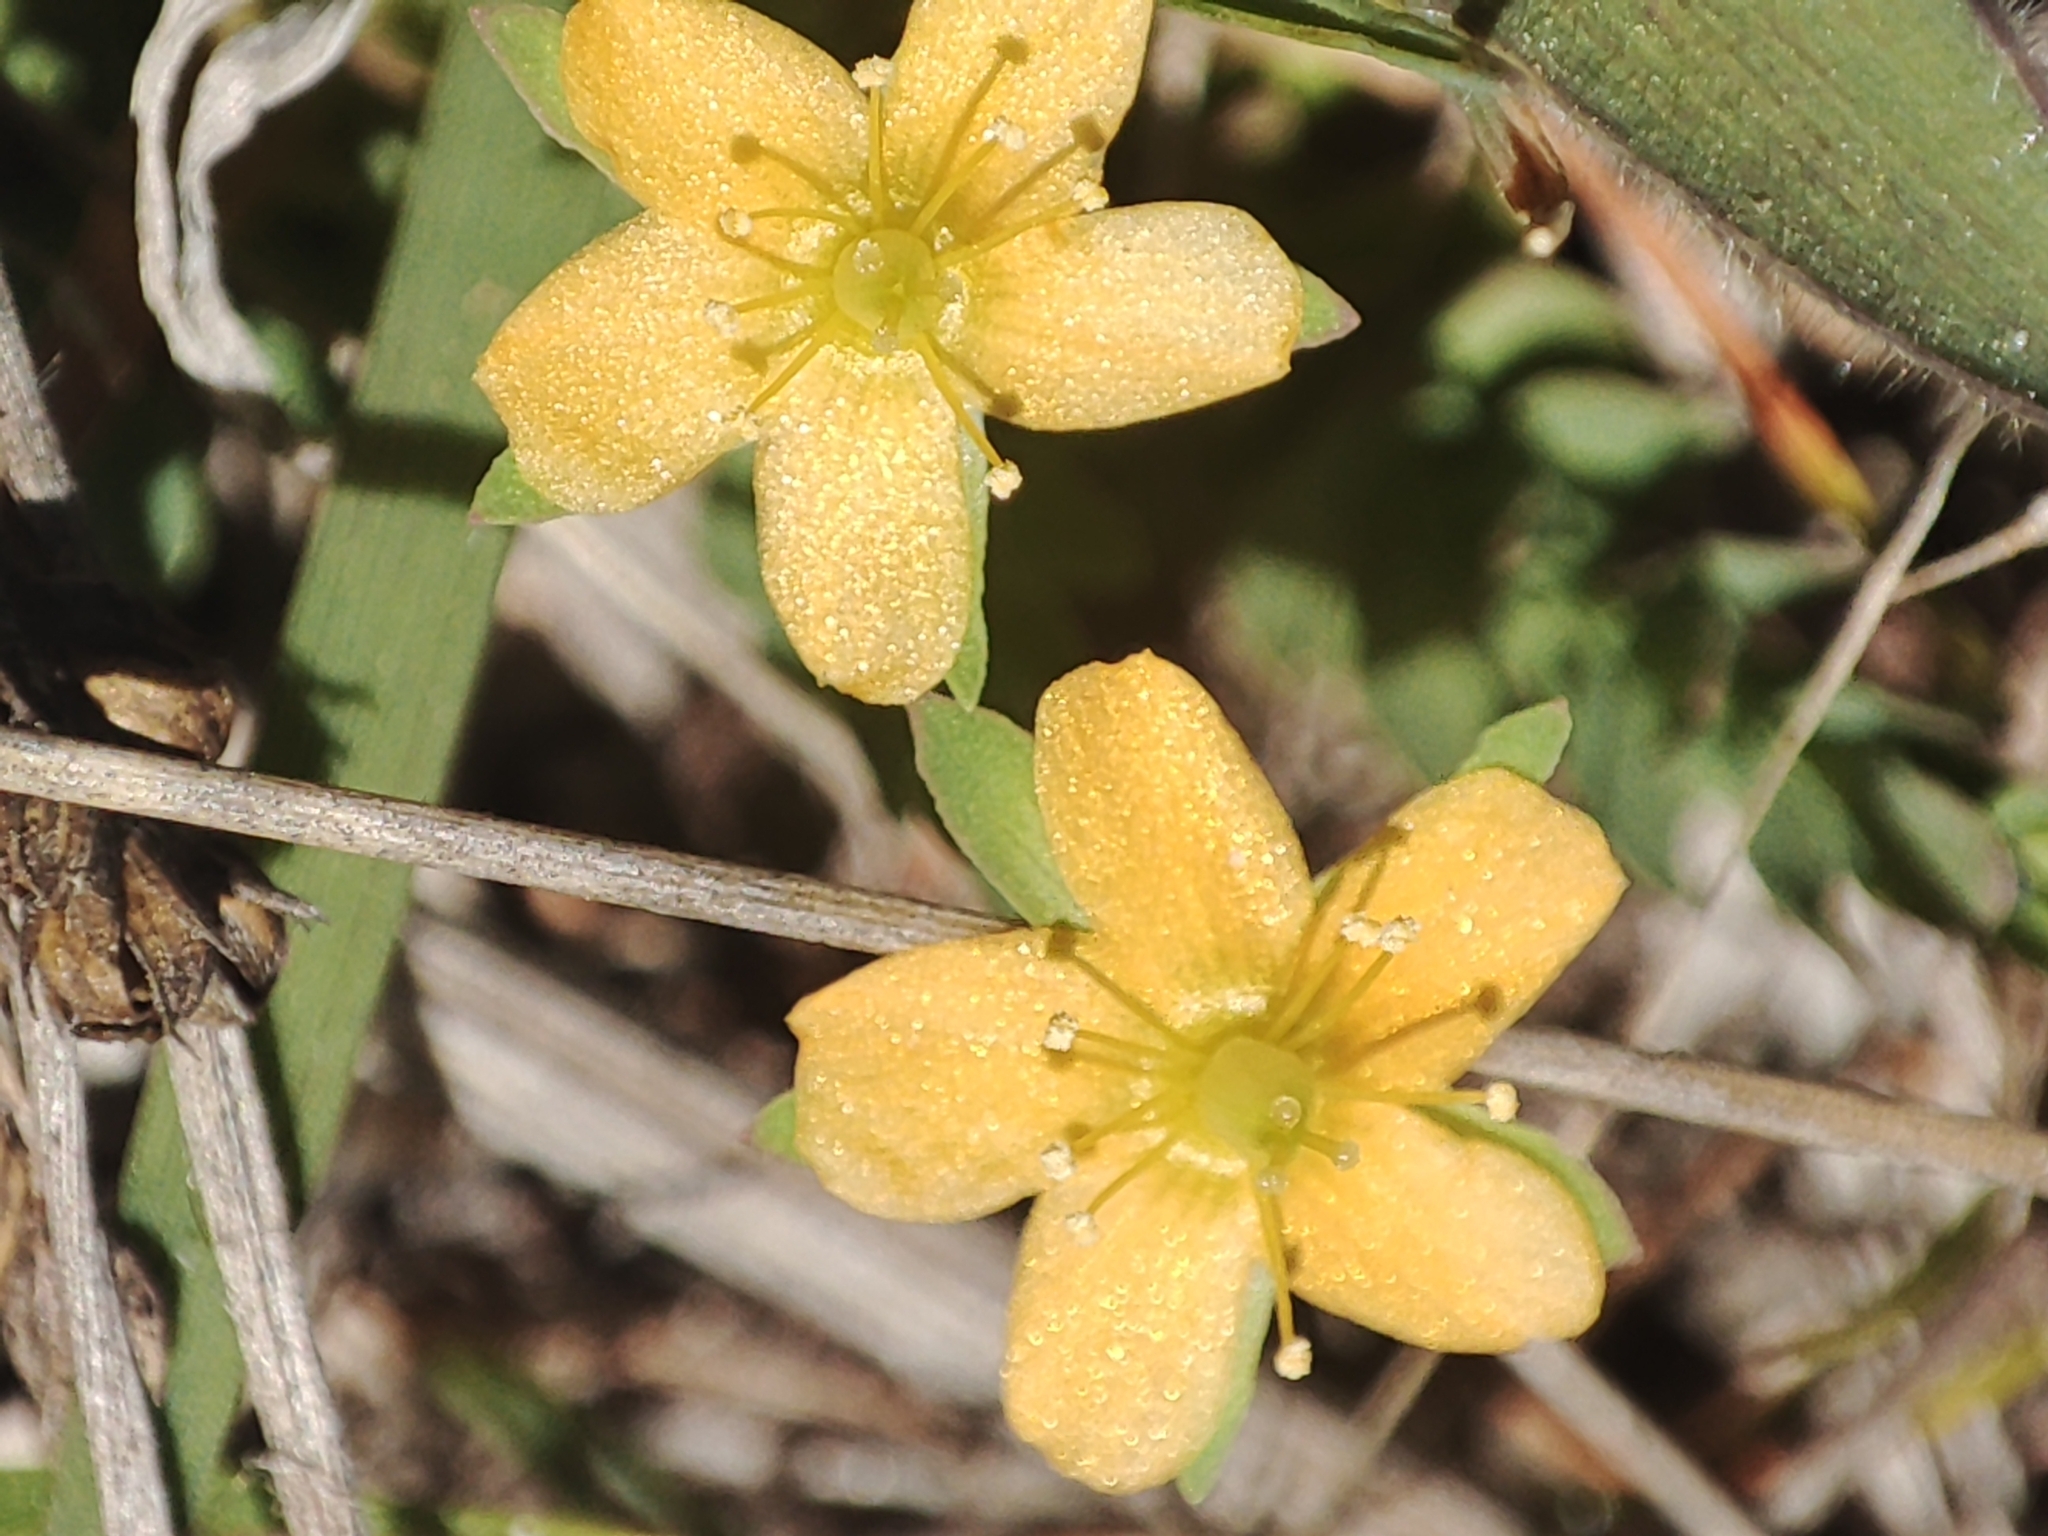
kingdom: Plantae
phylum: Tracheophyta
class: Magnoliopsida
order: Malpighiales
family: Hypericaceae
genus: Hypericum
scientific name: Hypericum gramineum
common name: Grassy st. johnswort
